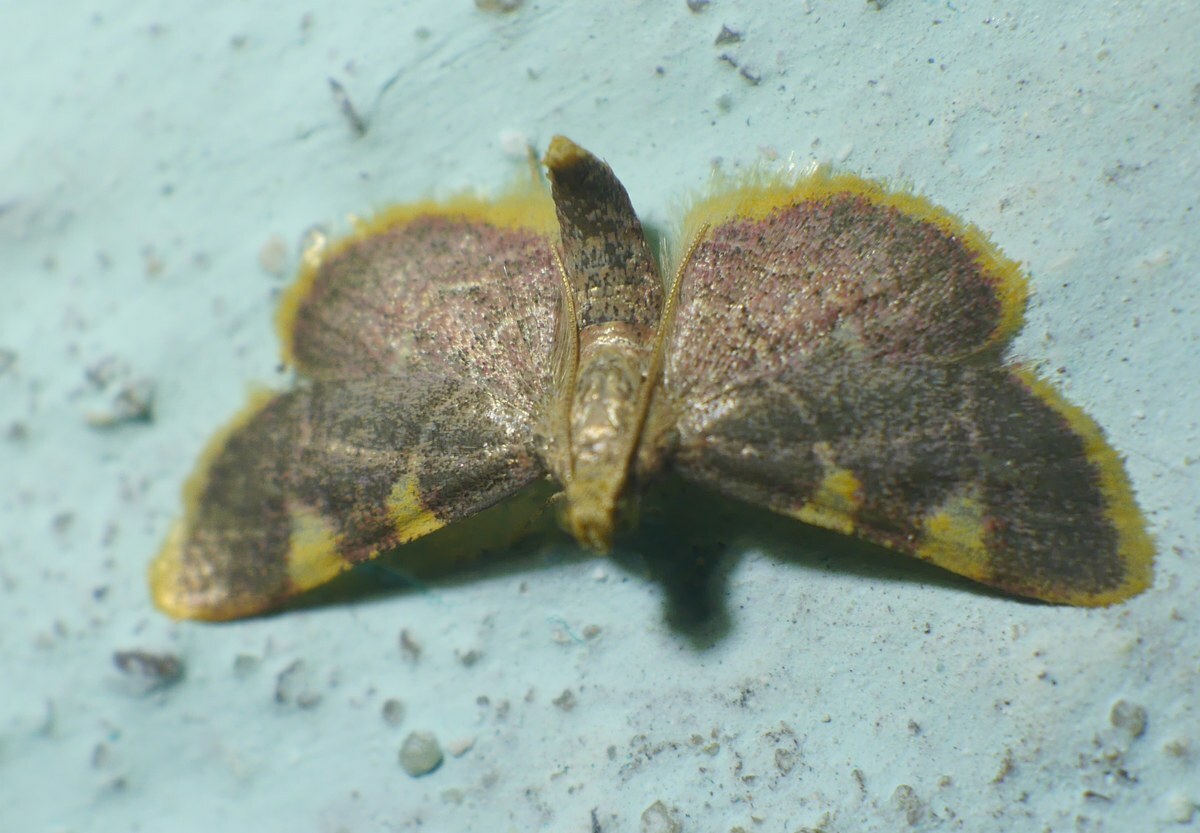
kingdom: Animalia
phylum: Arthropoda
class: Insecta
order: Lepidoptera
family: Pyralidae
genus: Hypsopygia
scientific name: Hypsopygia costalis
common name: Gold triangle
